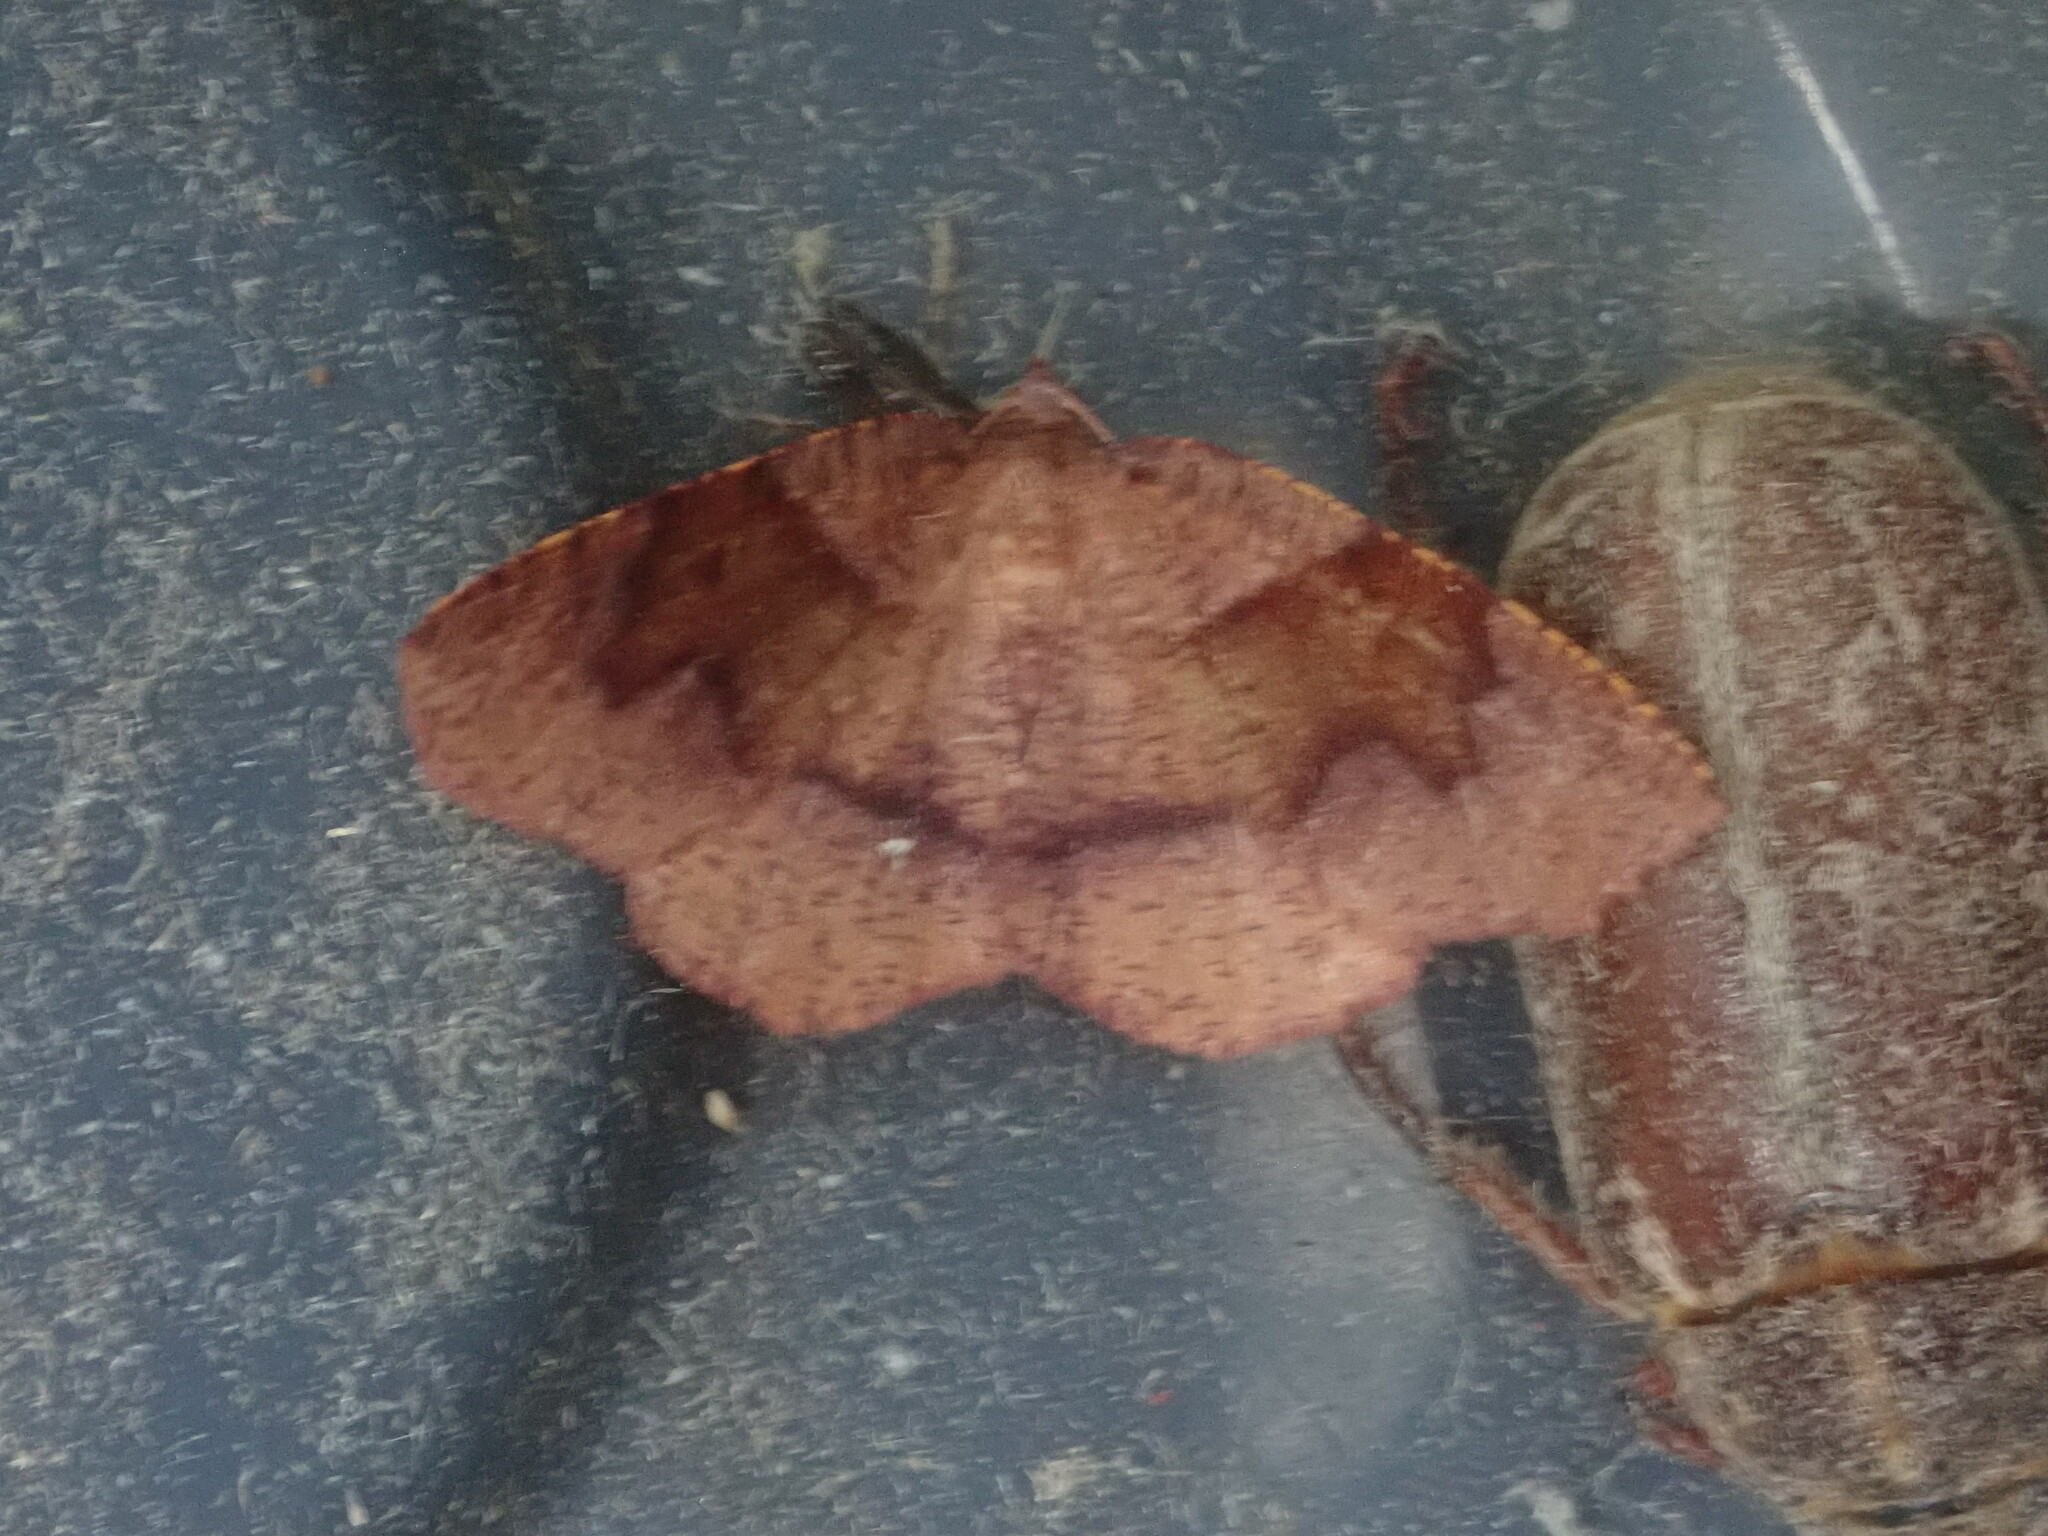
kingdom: Animalia
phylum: Arthropoda
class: Insecta
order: Lepidoptera
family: Geometridae
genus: Plagodis
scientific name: Plagodis pulveraria
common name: Barred umber
